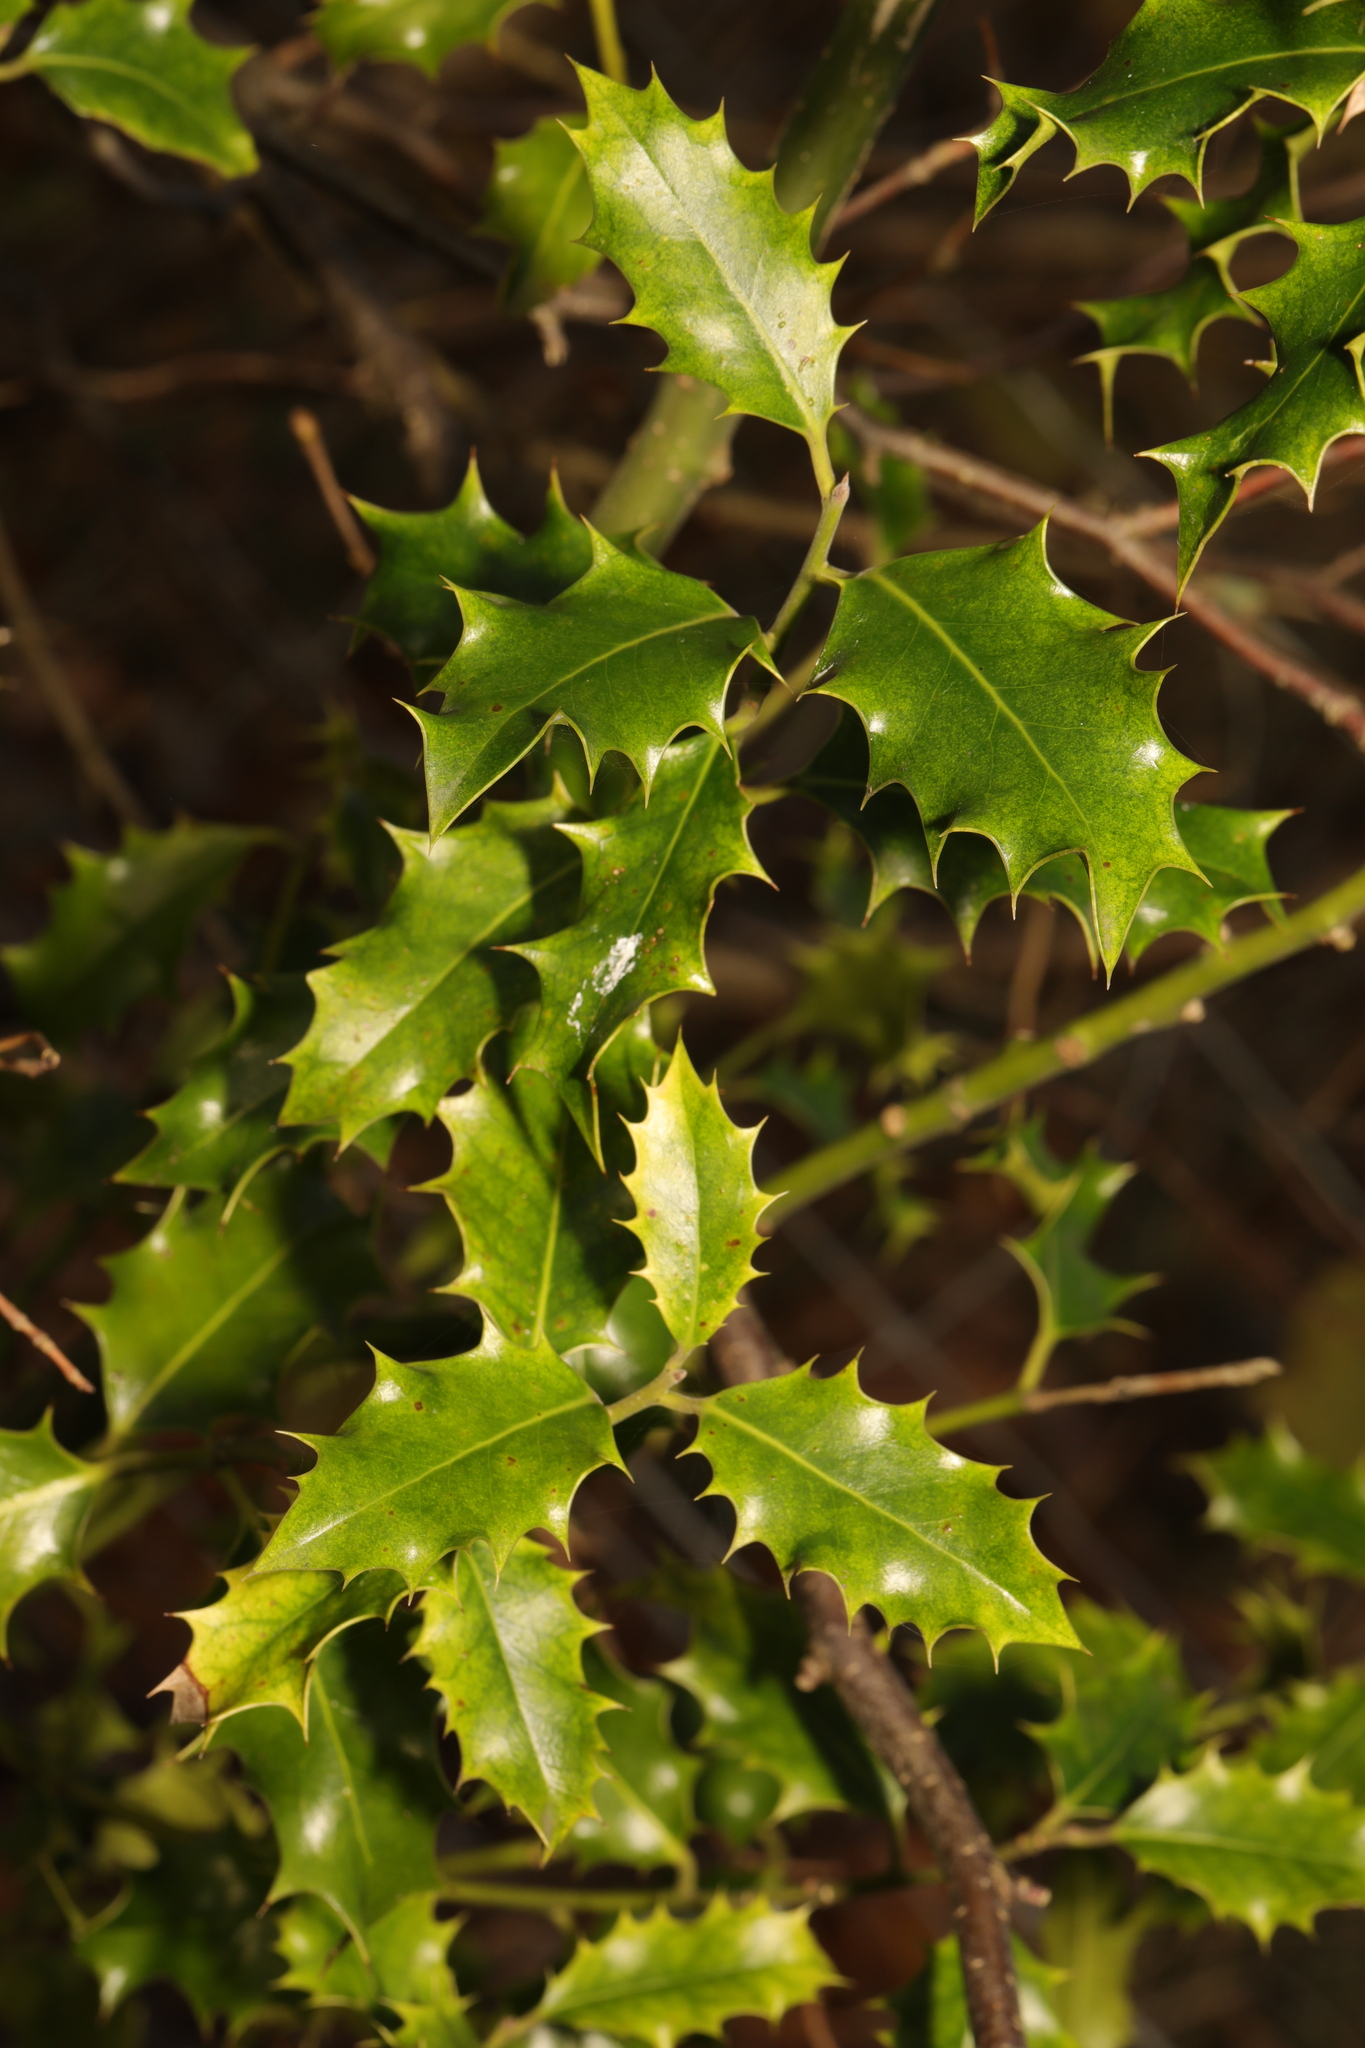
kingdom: Plantae
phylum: Tracheophyta
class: Magnoliopsida
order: Aquifoliales
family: Aquifoliaceae
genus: Ilex
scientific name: Ilex aquifolium
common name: English holly
